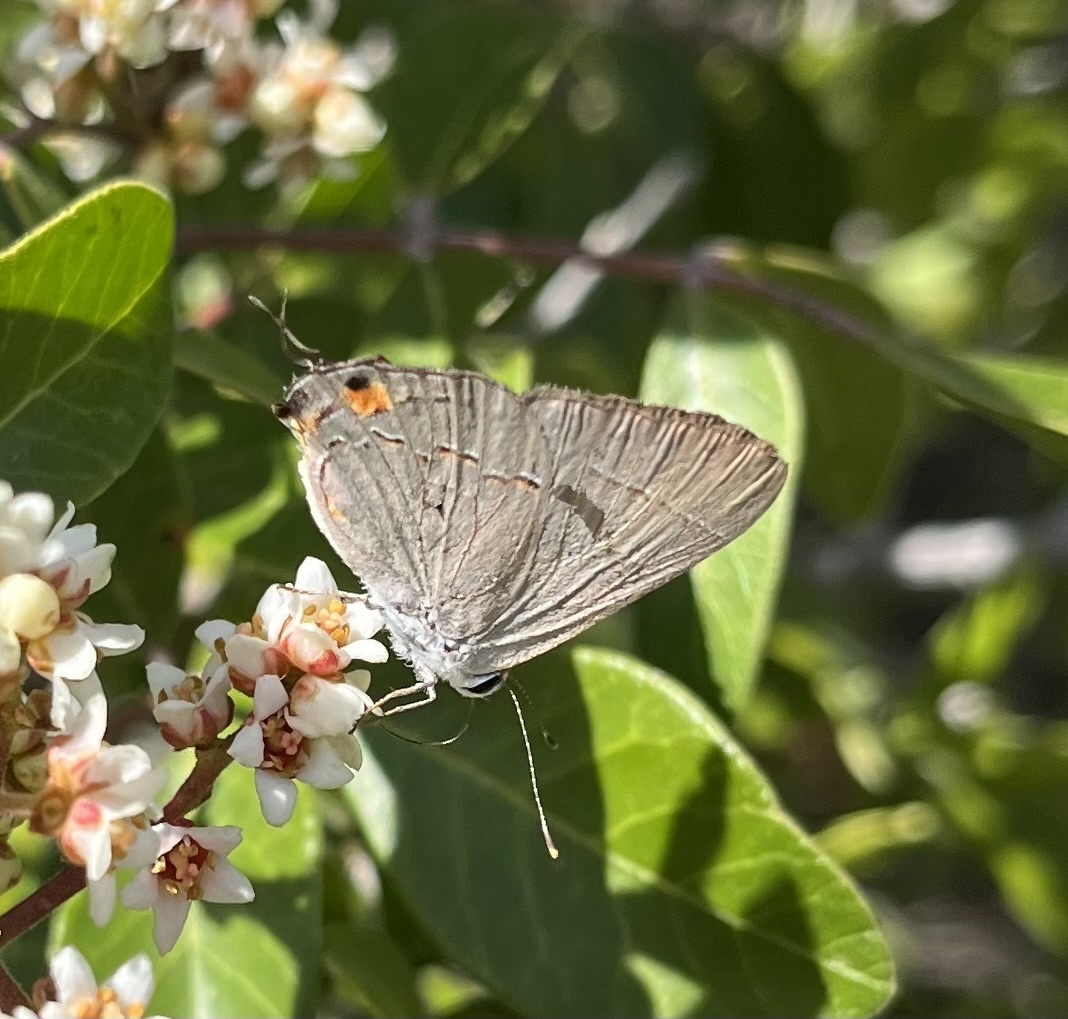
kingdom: Animalia
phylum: Arthropoda
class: Insecta
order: Lepidoptera
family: Lycaenidae
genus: Strymon
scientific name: Strymon melinus
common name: Gray hairstreak
